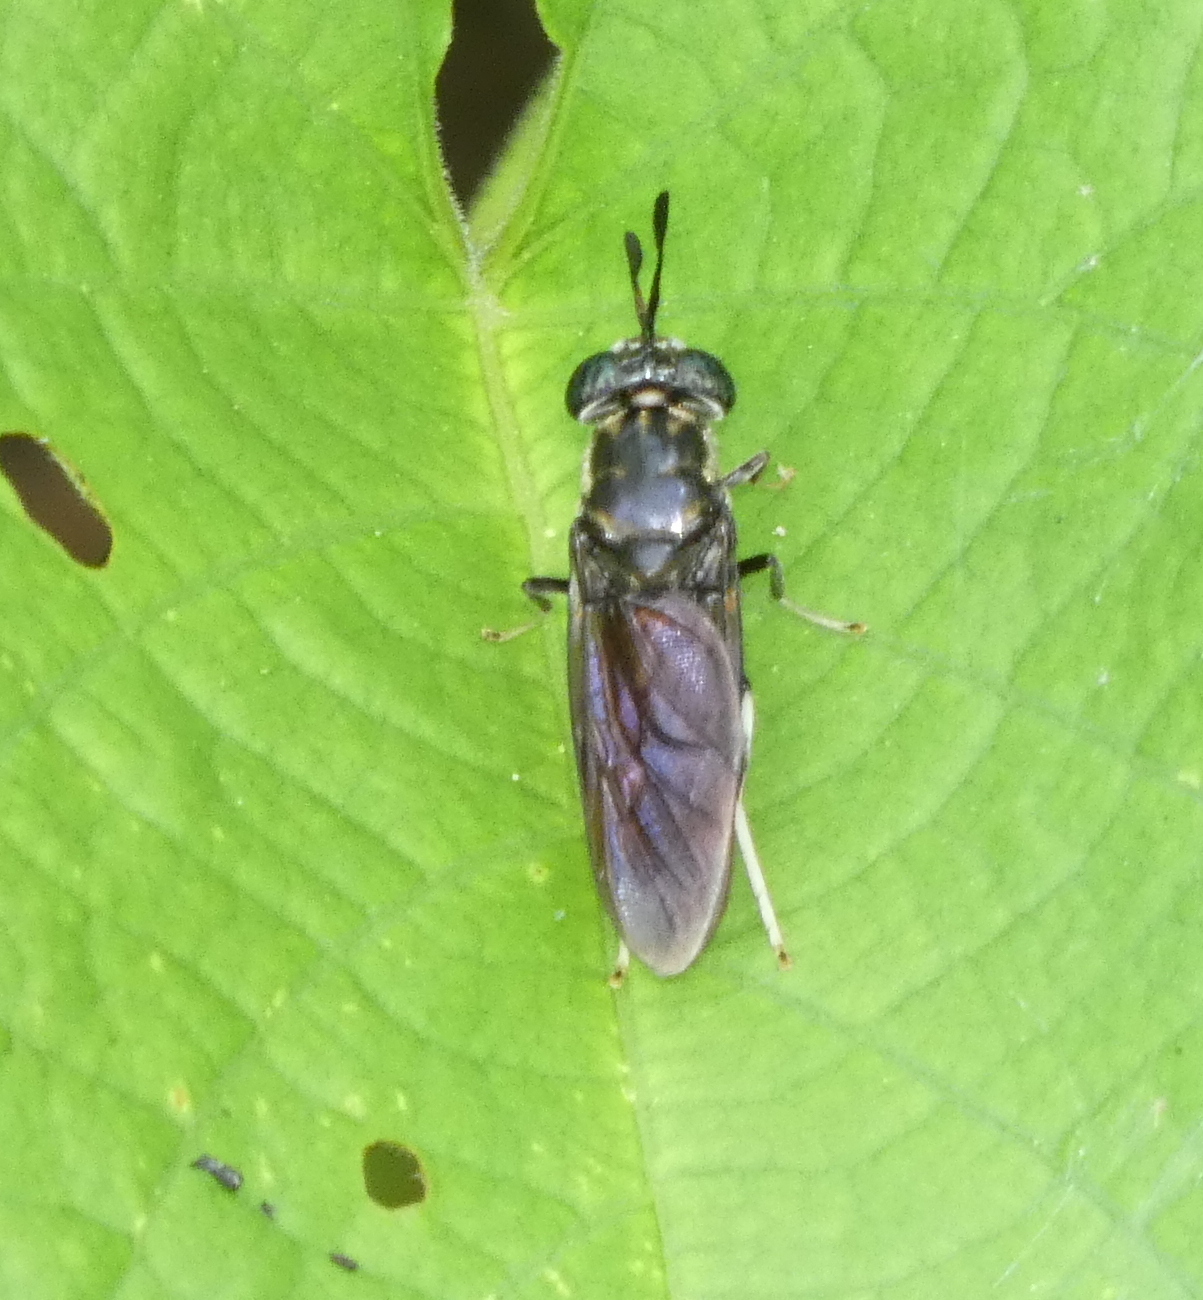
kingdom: Animalia
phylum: Arthropoda
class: Insecta
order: Diptera
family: Stratiomyidae
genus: Hermetia
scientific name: Hermetia illucens
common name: Black soldier fly
